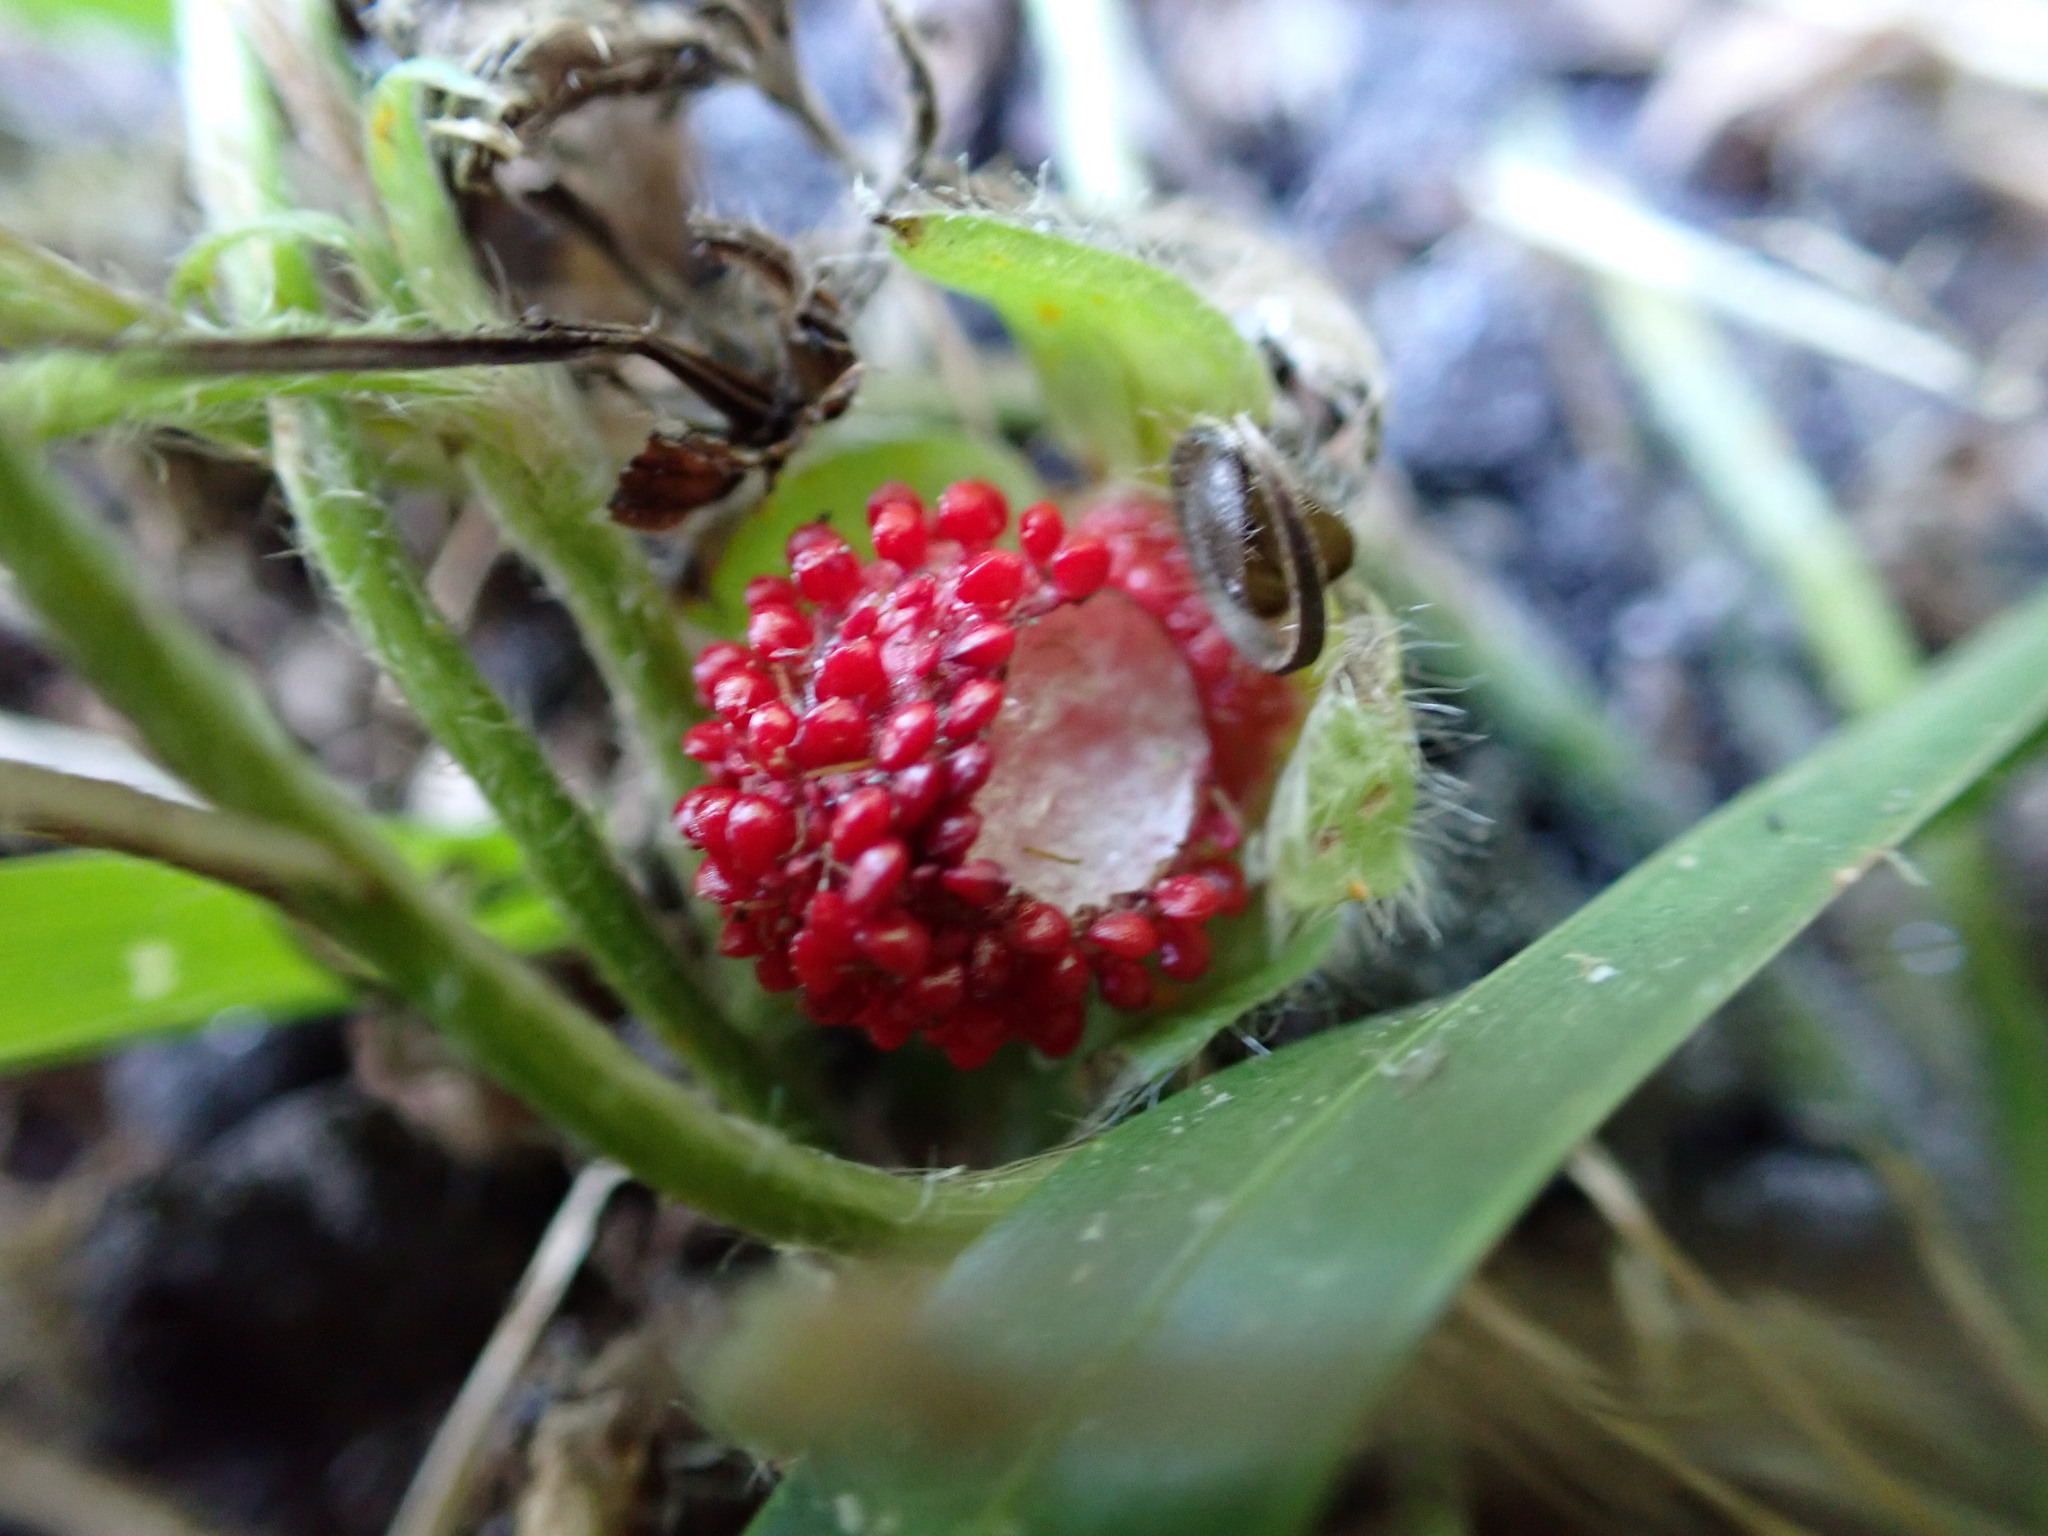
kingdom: Plantae
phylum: Tracheophyta
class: Magnoliopsida
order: Rosales
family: Rosaceae
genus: Potentilla
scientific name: Potentilla indica
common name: Yellow-flowered strawberry
